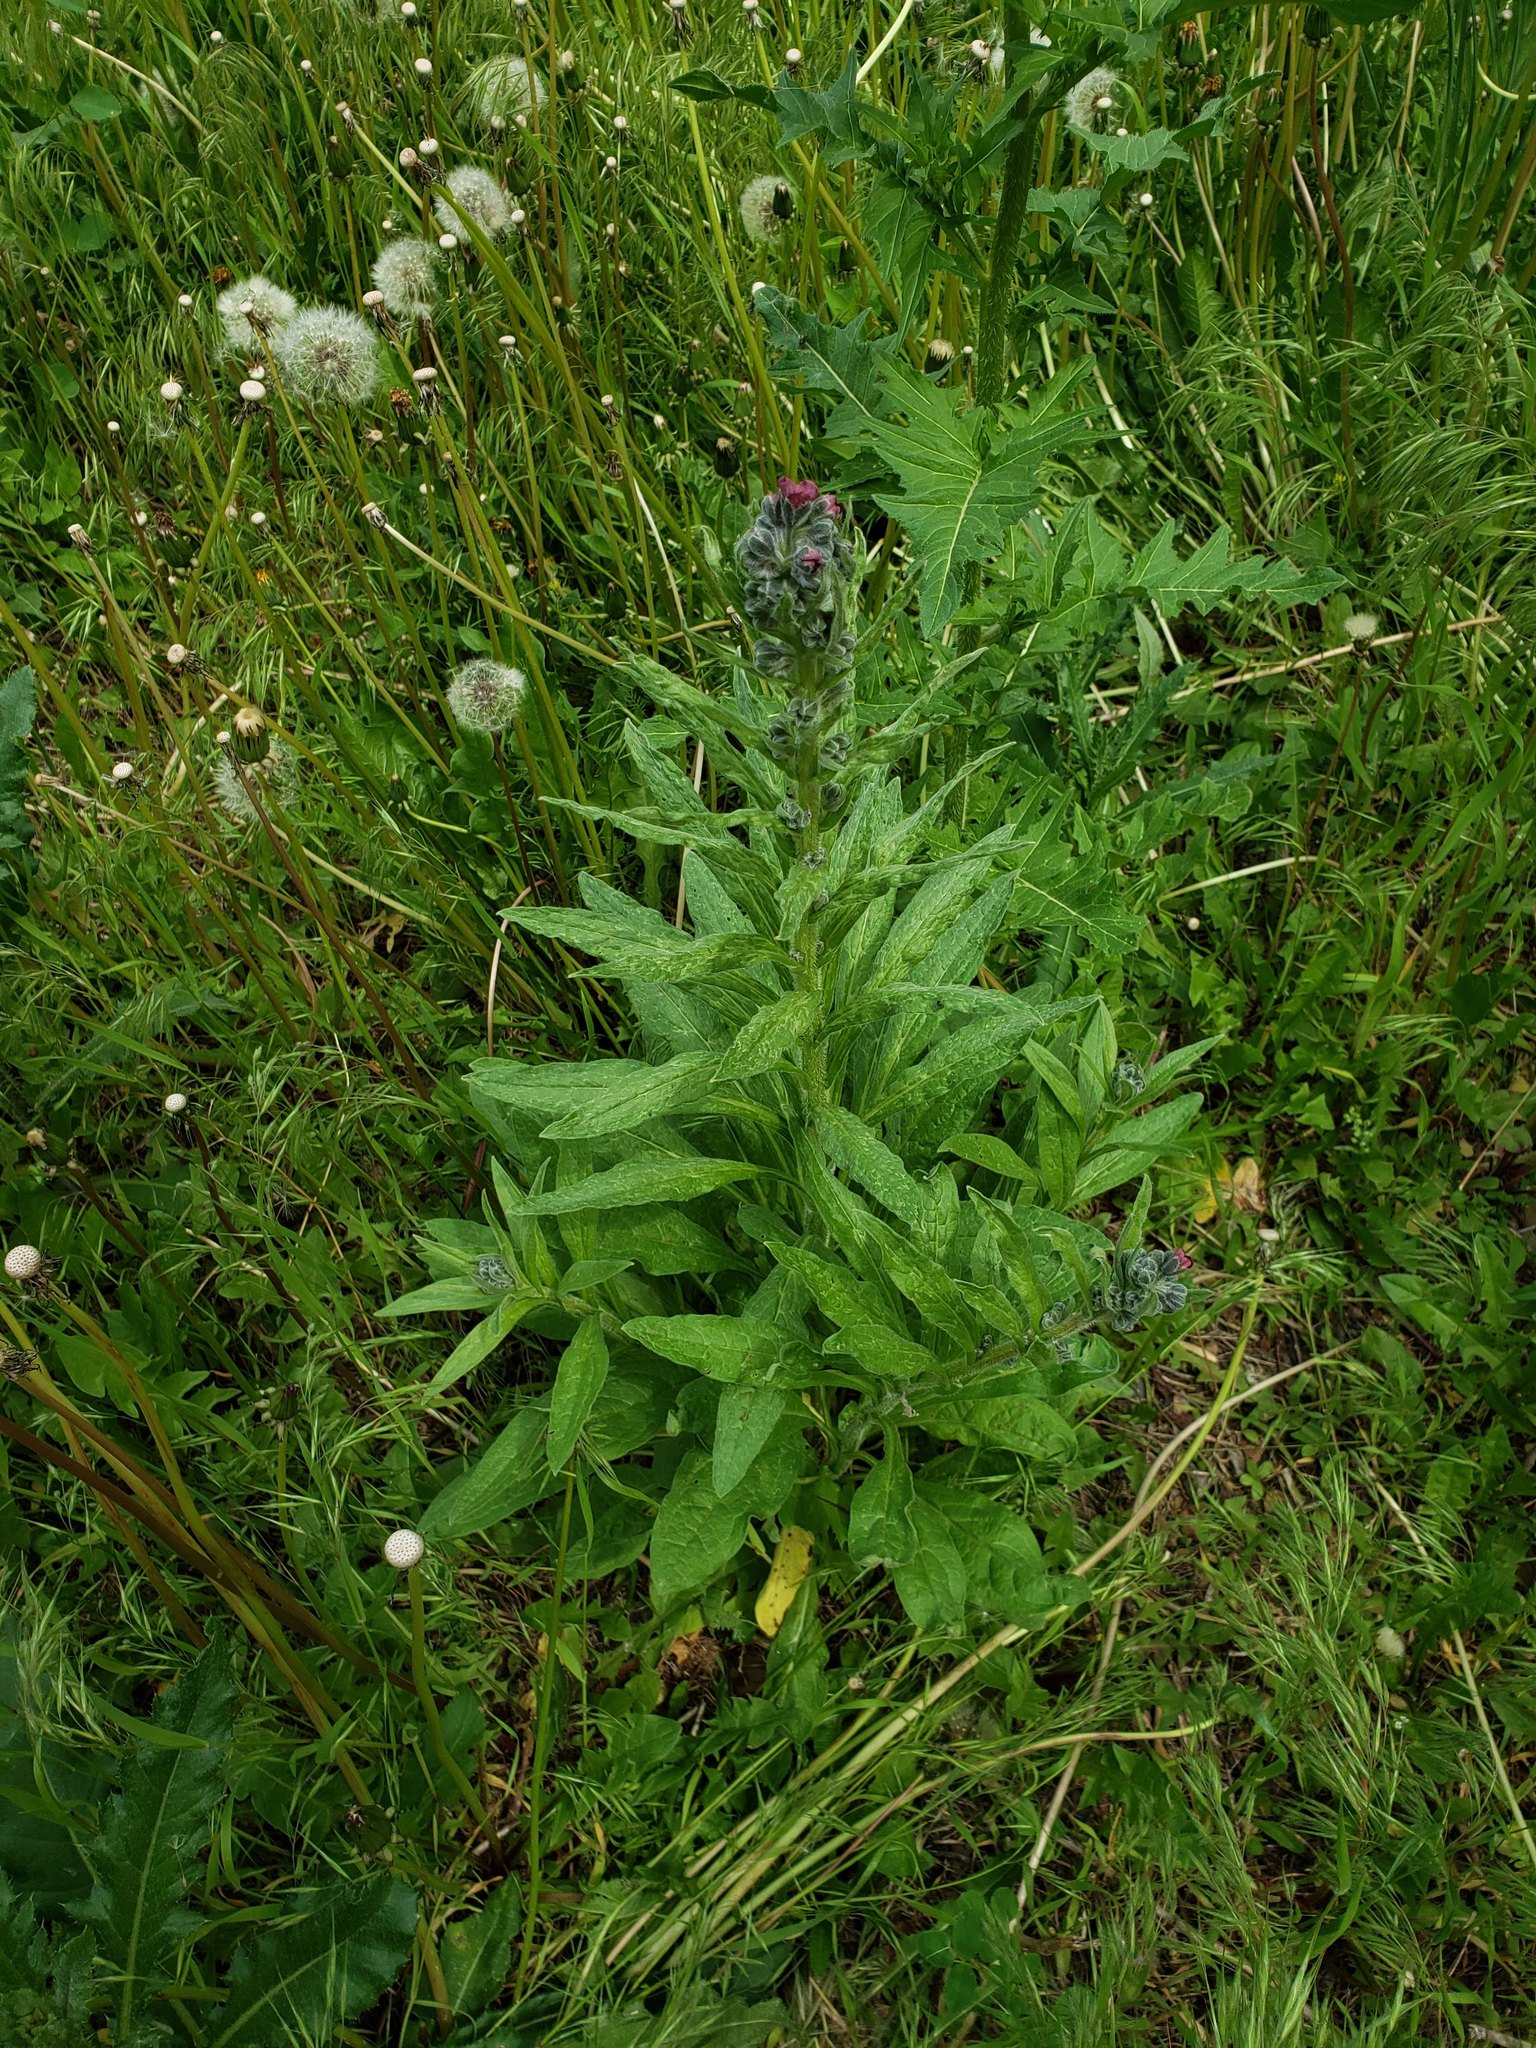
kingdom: Plantae
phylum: Tracheophyta
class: Magnoliopsida
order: Boraginales
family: Boraginaceae
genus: Cynoglossum
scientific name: Cynoglossum officinale
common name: Hound's-tongue
